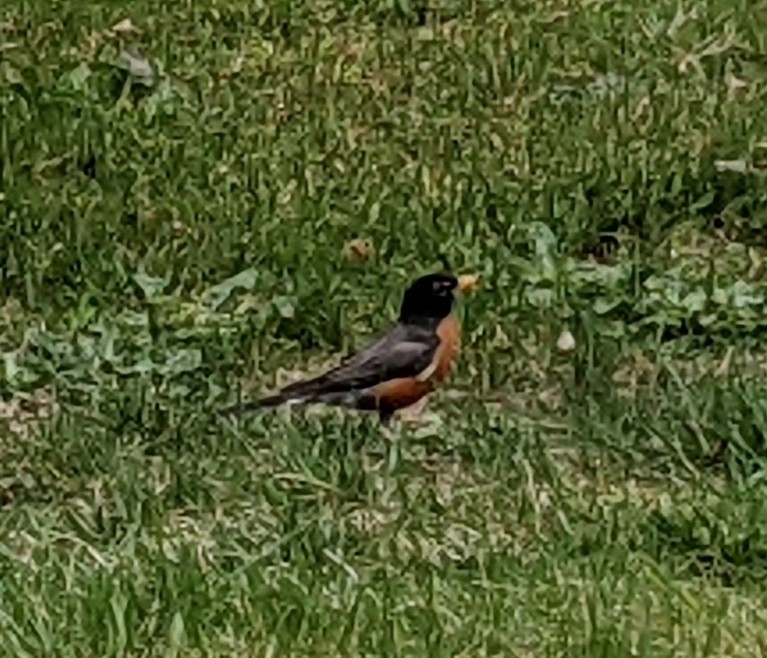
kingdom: Animalia
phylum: Chordata
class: Aves
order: Passeriformes
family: Turdidae
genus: Turdus
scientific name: Turdus migratorius
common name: American robin
